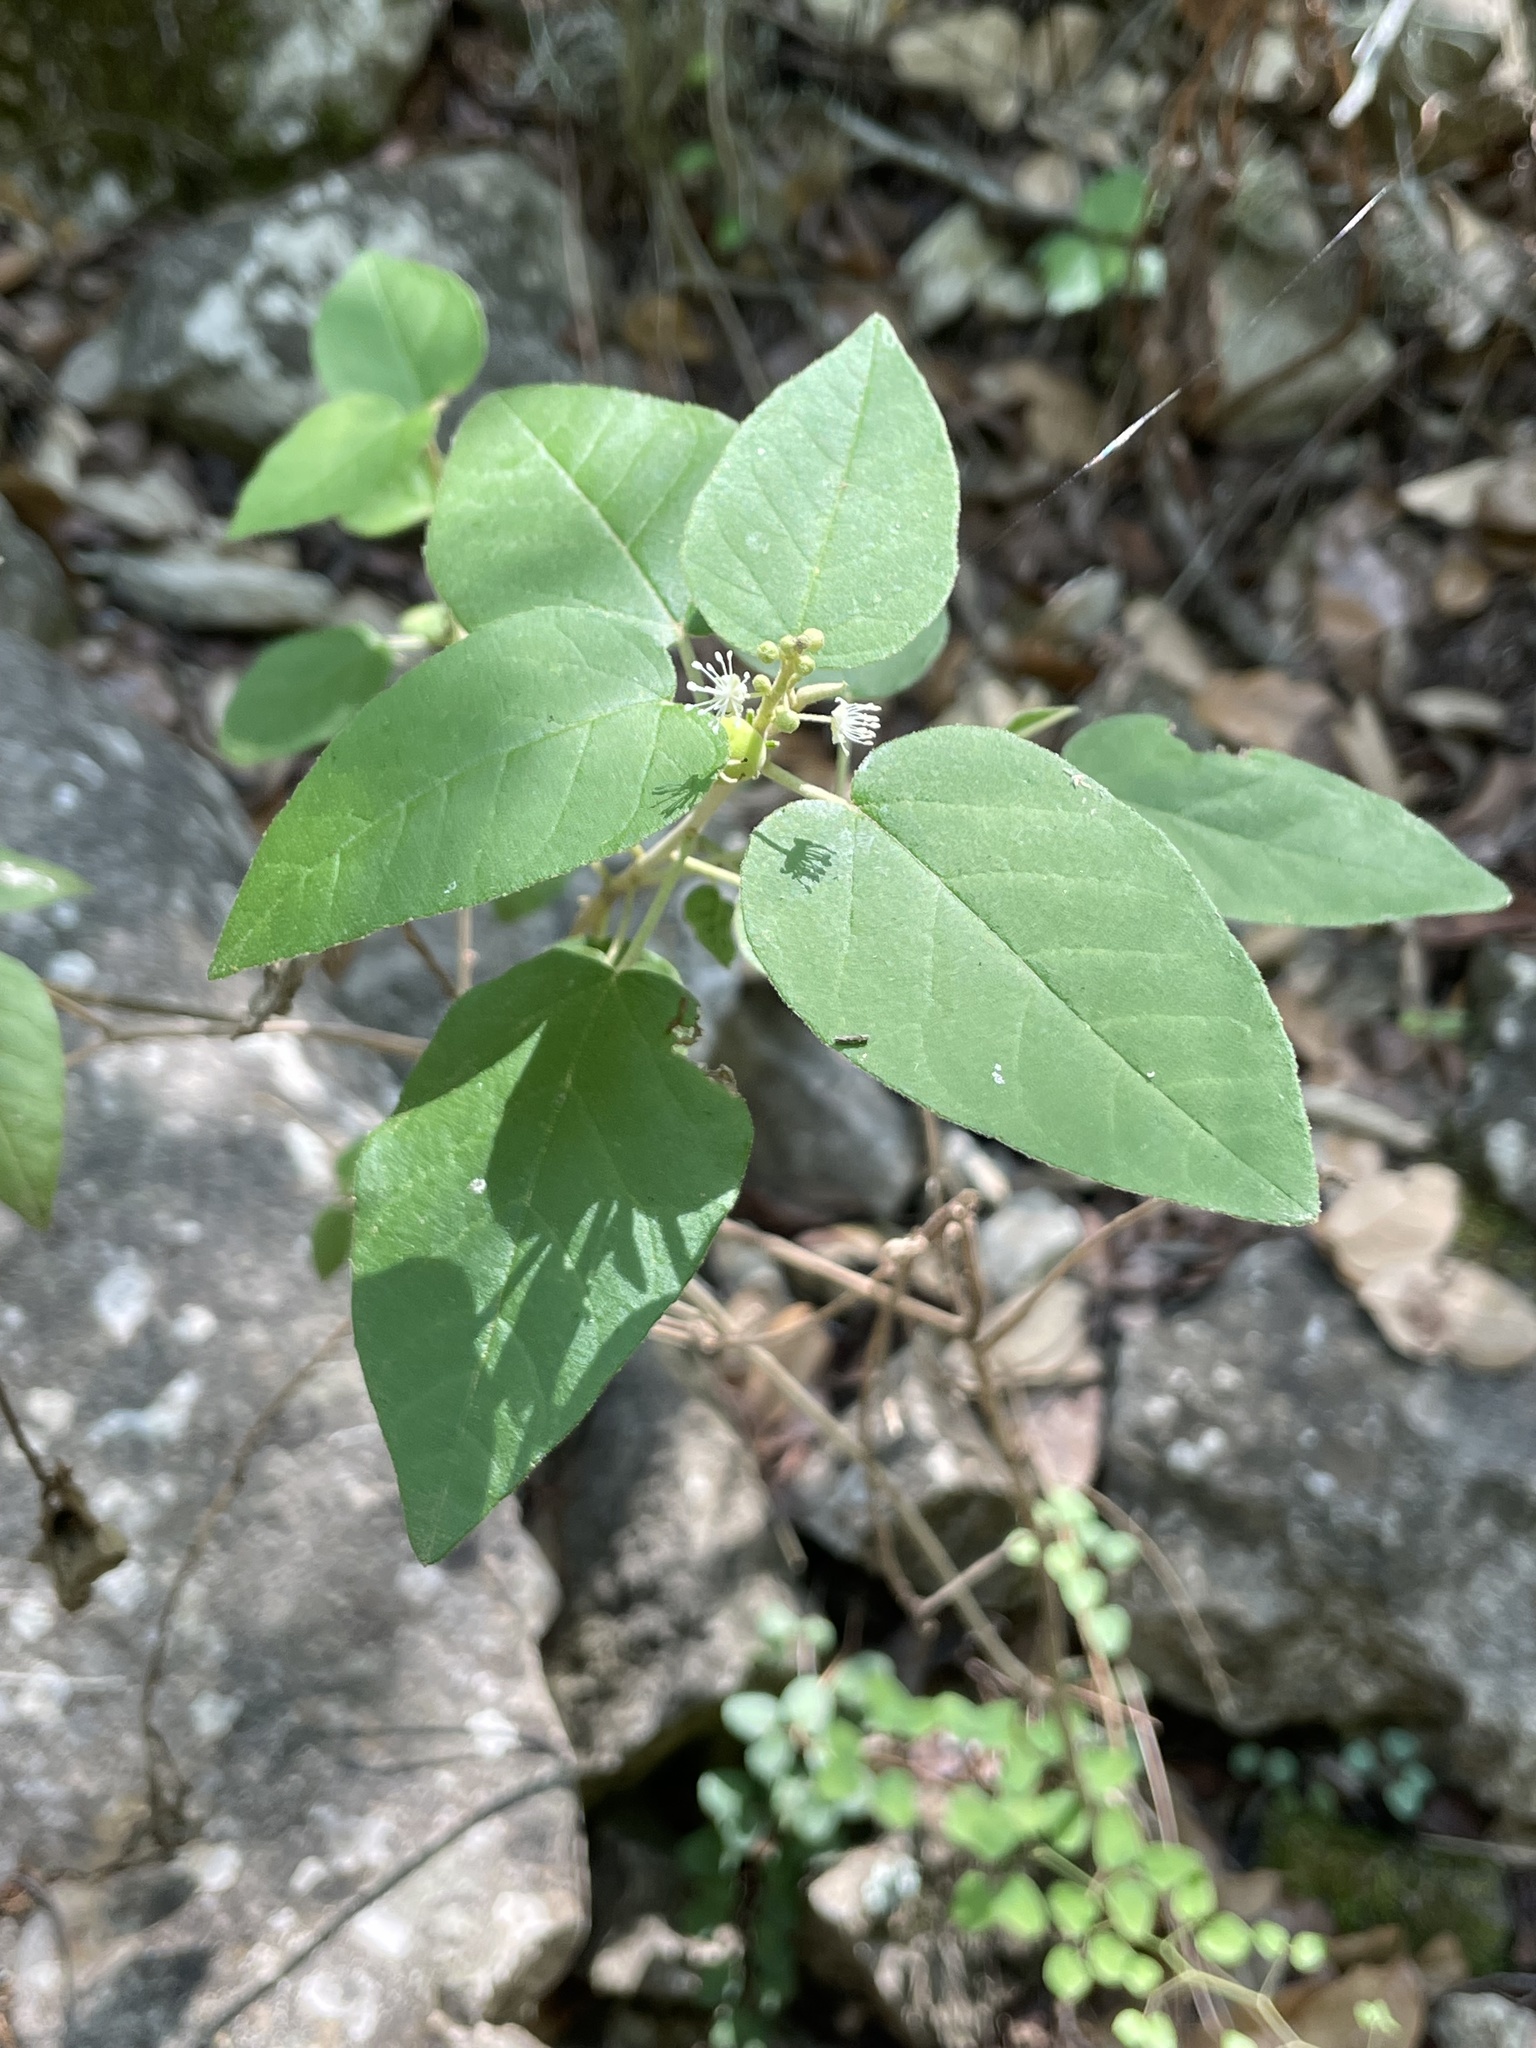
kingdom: Plantae
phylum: Tracheophyta
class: Magnoliopsida
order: Malpighiales
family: Euphorbiaceae
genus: Croton
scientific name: Croton fruticulosus
